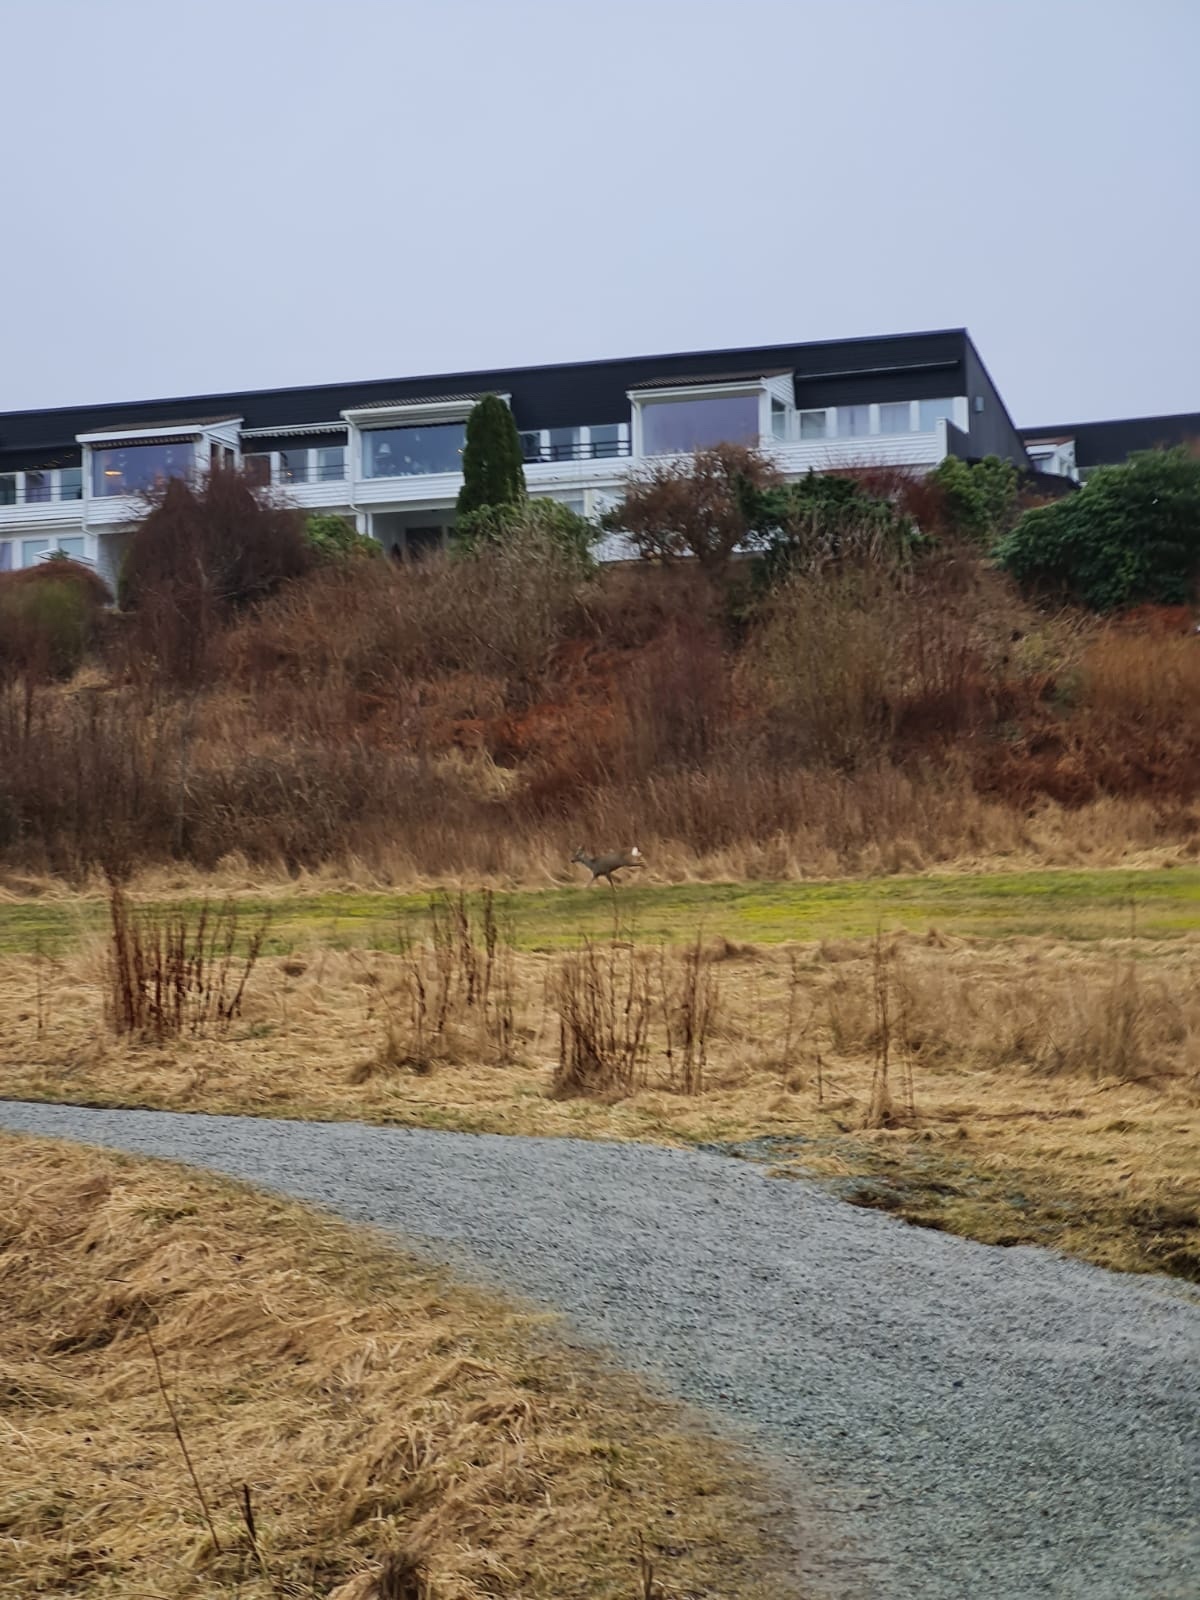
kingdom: Animalia
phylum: Chordata
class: Mammalia
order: Artiodactyla
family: Cervidae
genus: Capreolus
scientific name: Capreolus capreolus
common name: Western roe deer
